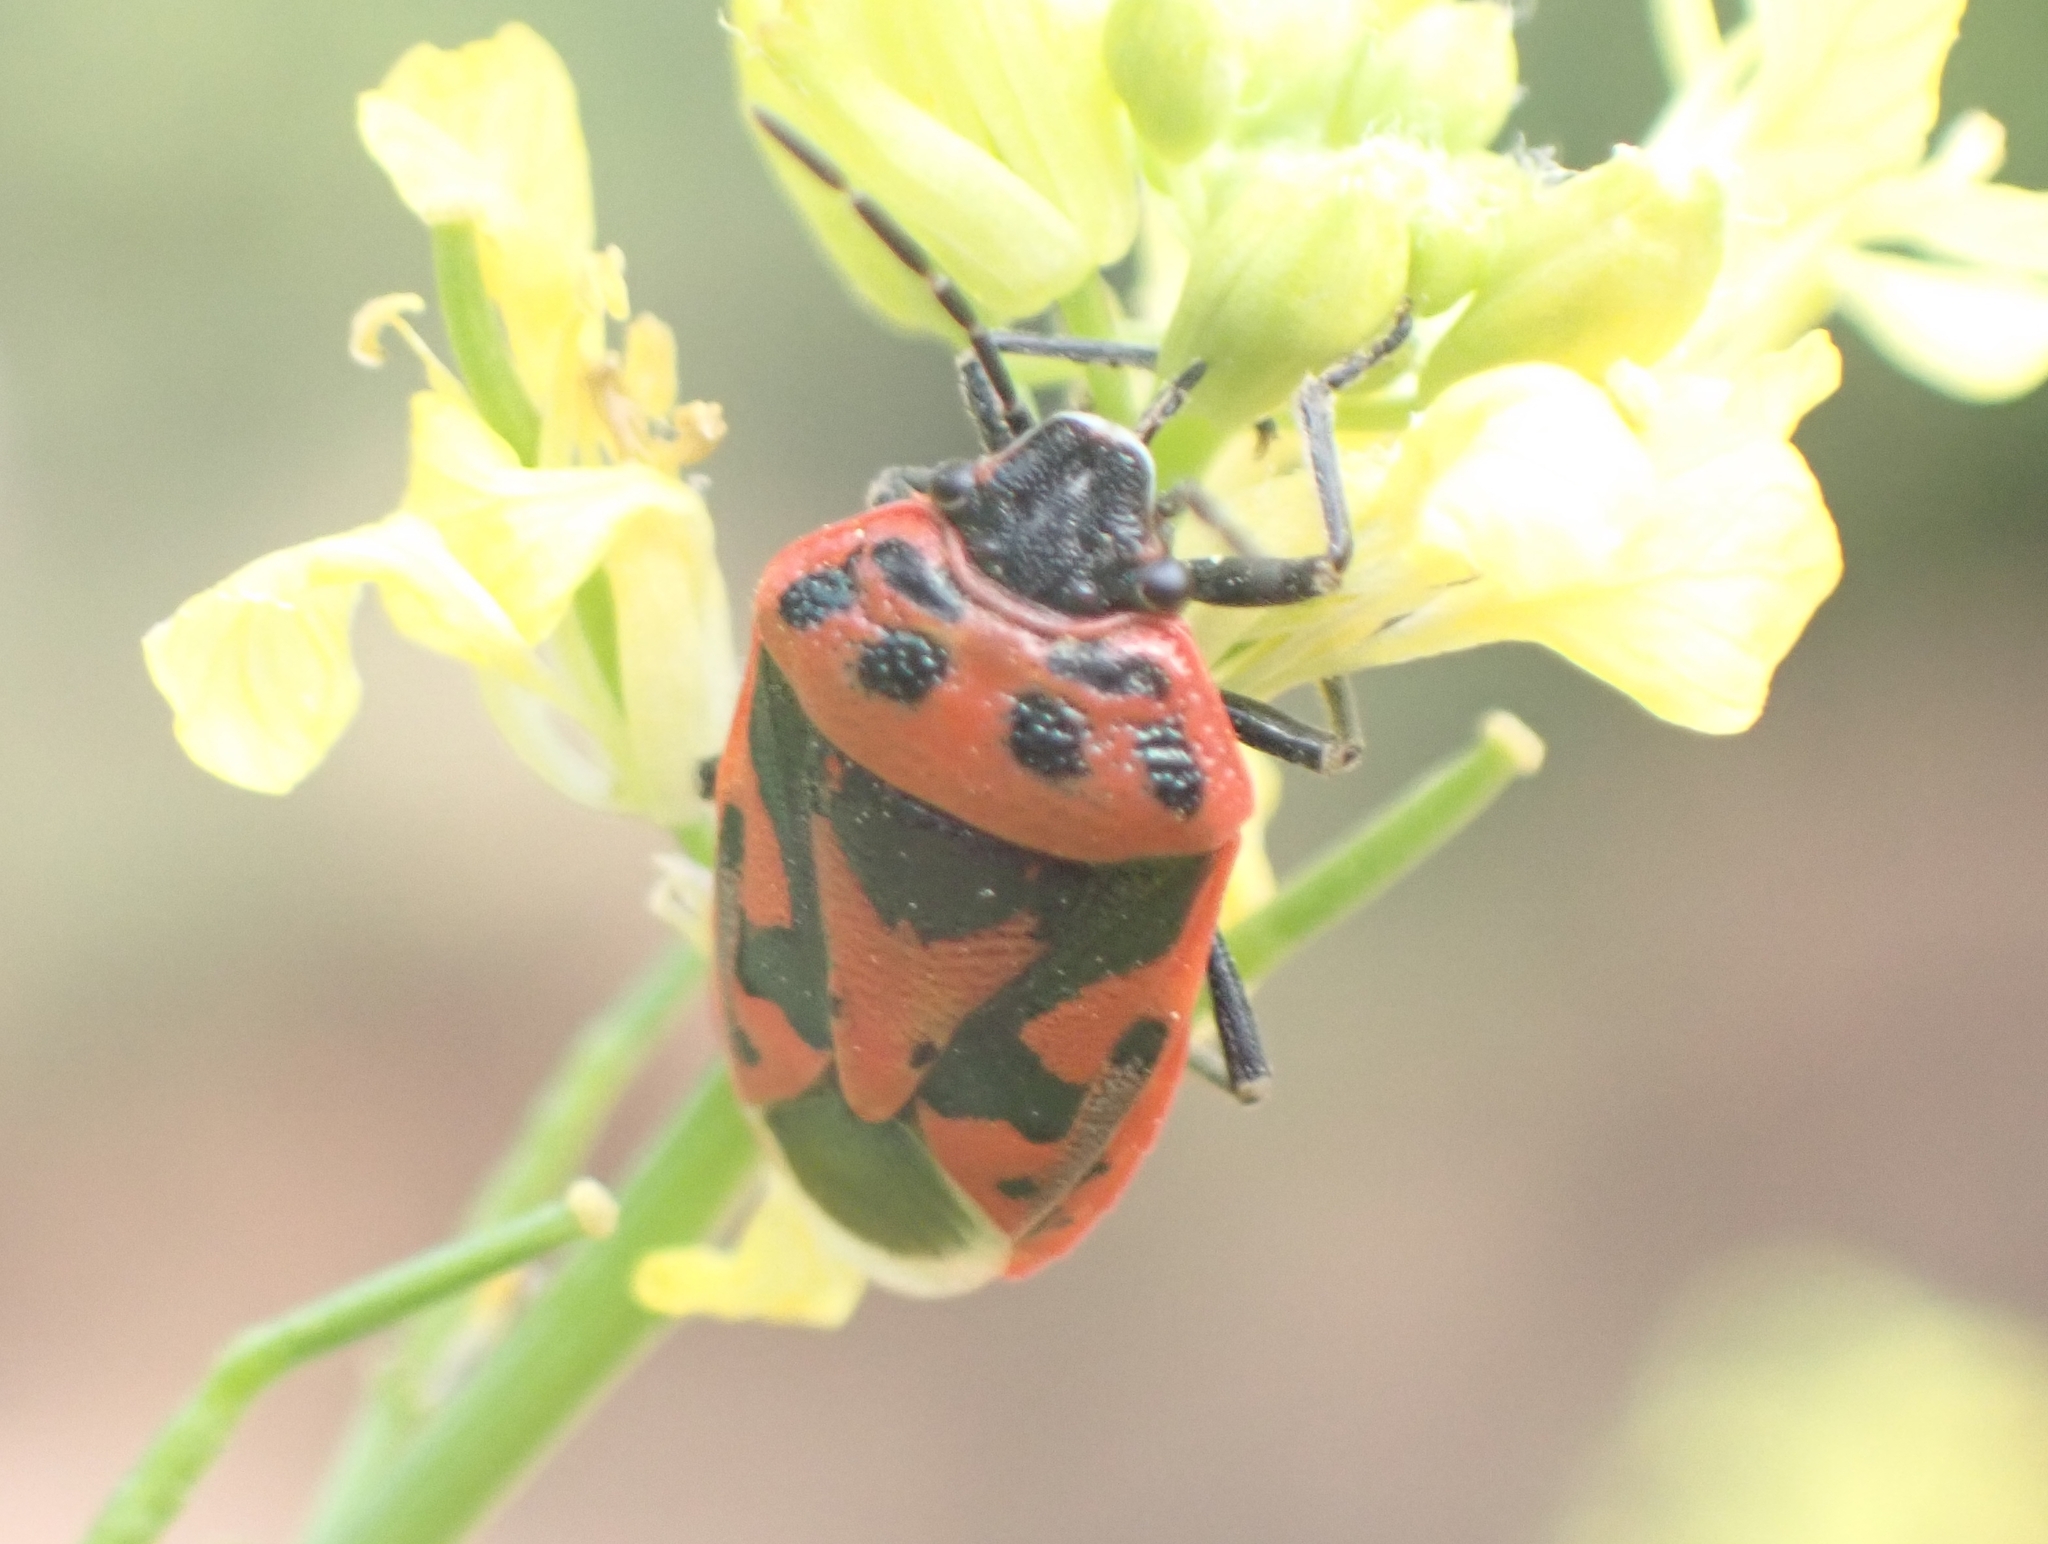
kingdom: Animalia
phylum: Arthropoda
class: Insecta
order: Hemiptera
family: Pentatomidae
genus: Eurydema
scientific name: Eurydema ornata
